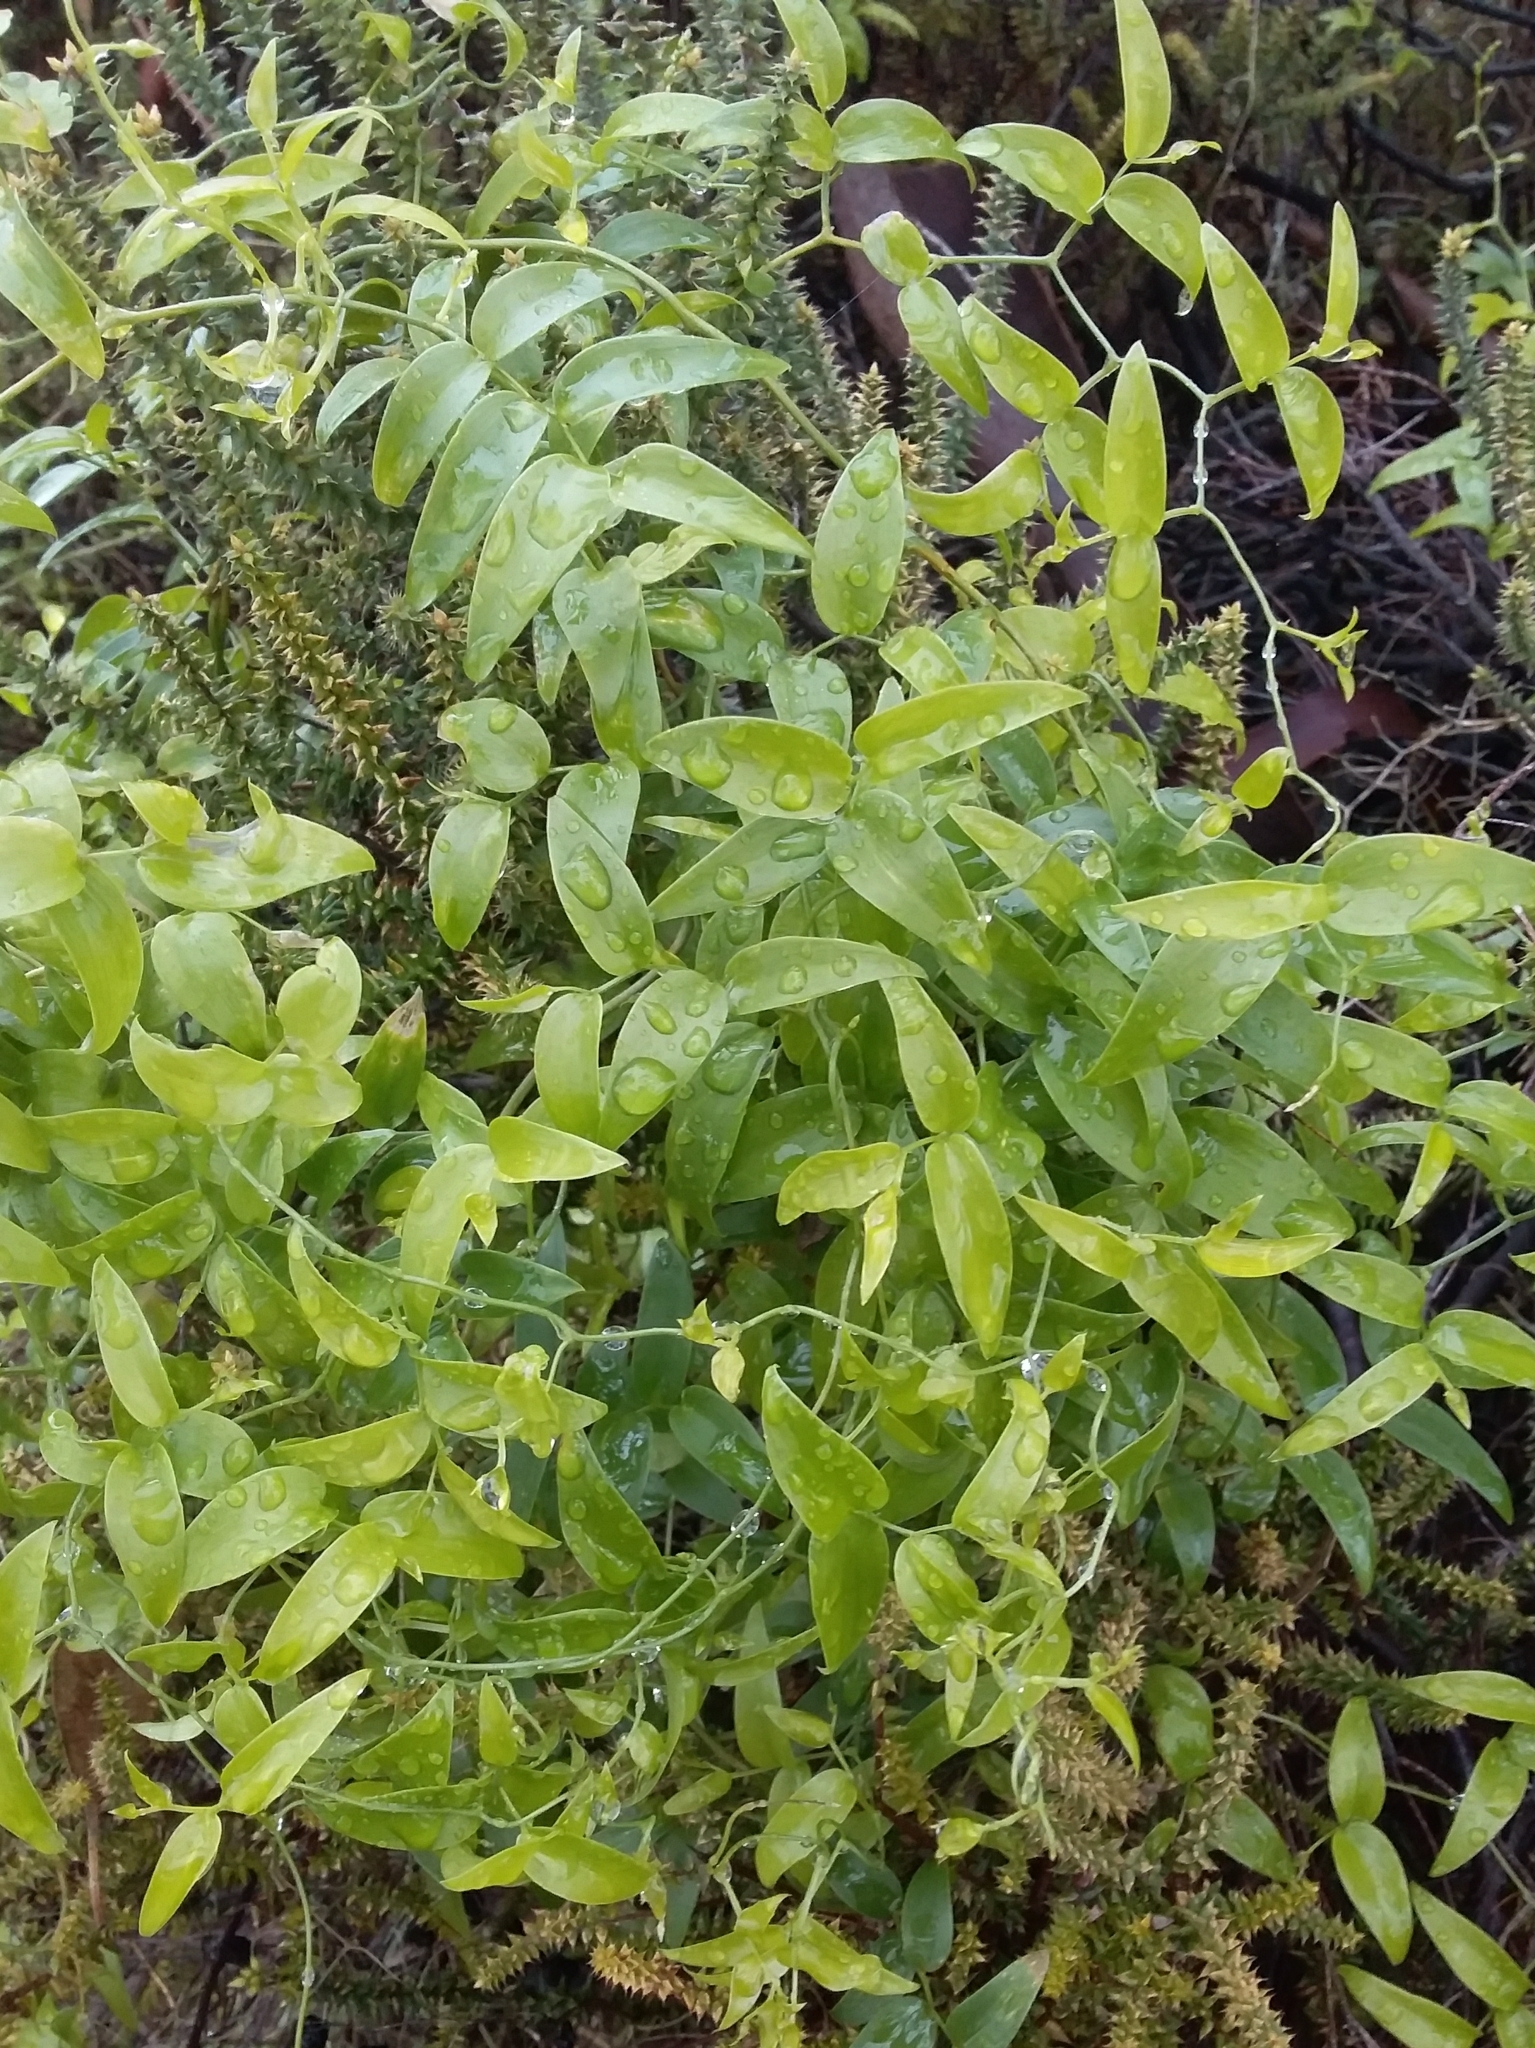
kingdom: Plantae
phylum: Tracheophyta
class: Liliopsida
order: Asparagales
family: Asparagaceae
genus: Asparagus
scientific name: Asparagus asparagoides
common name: African asparagus fern
